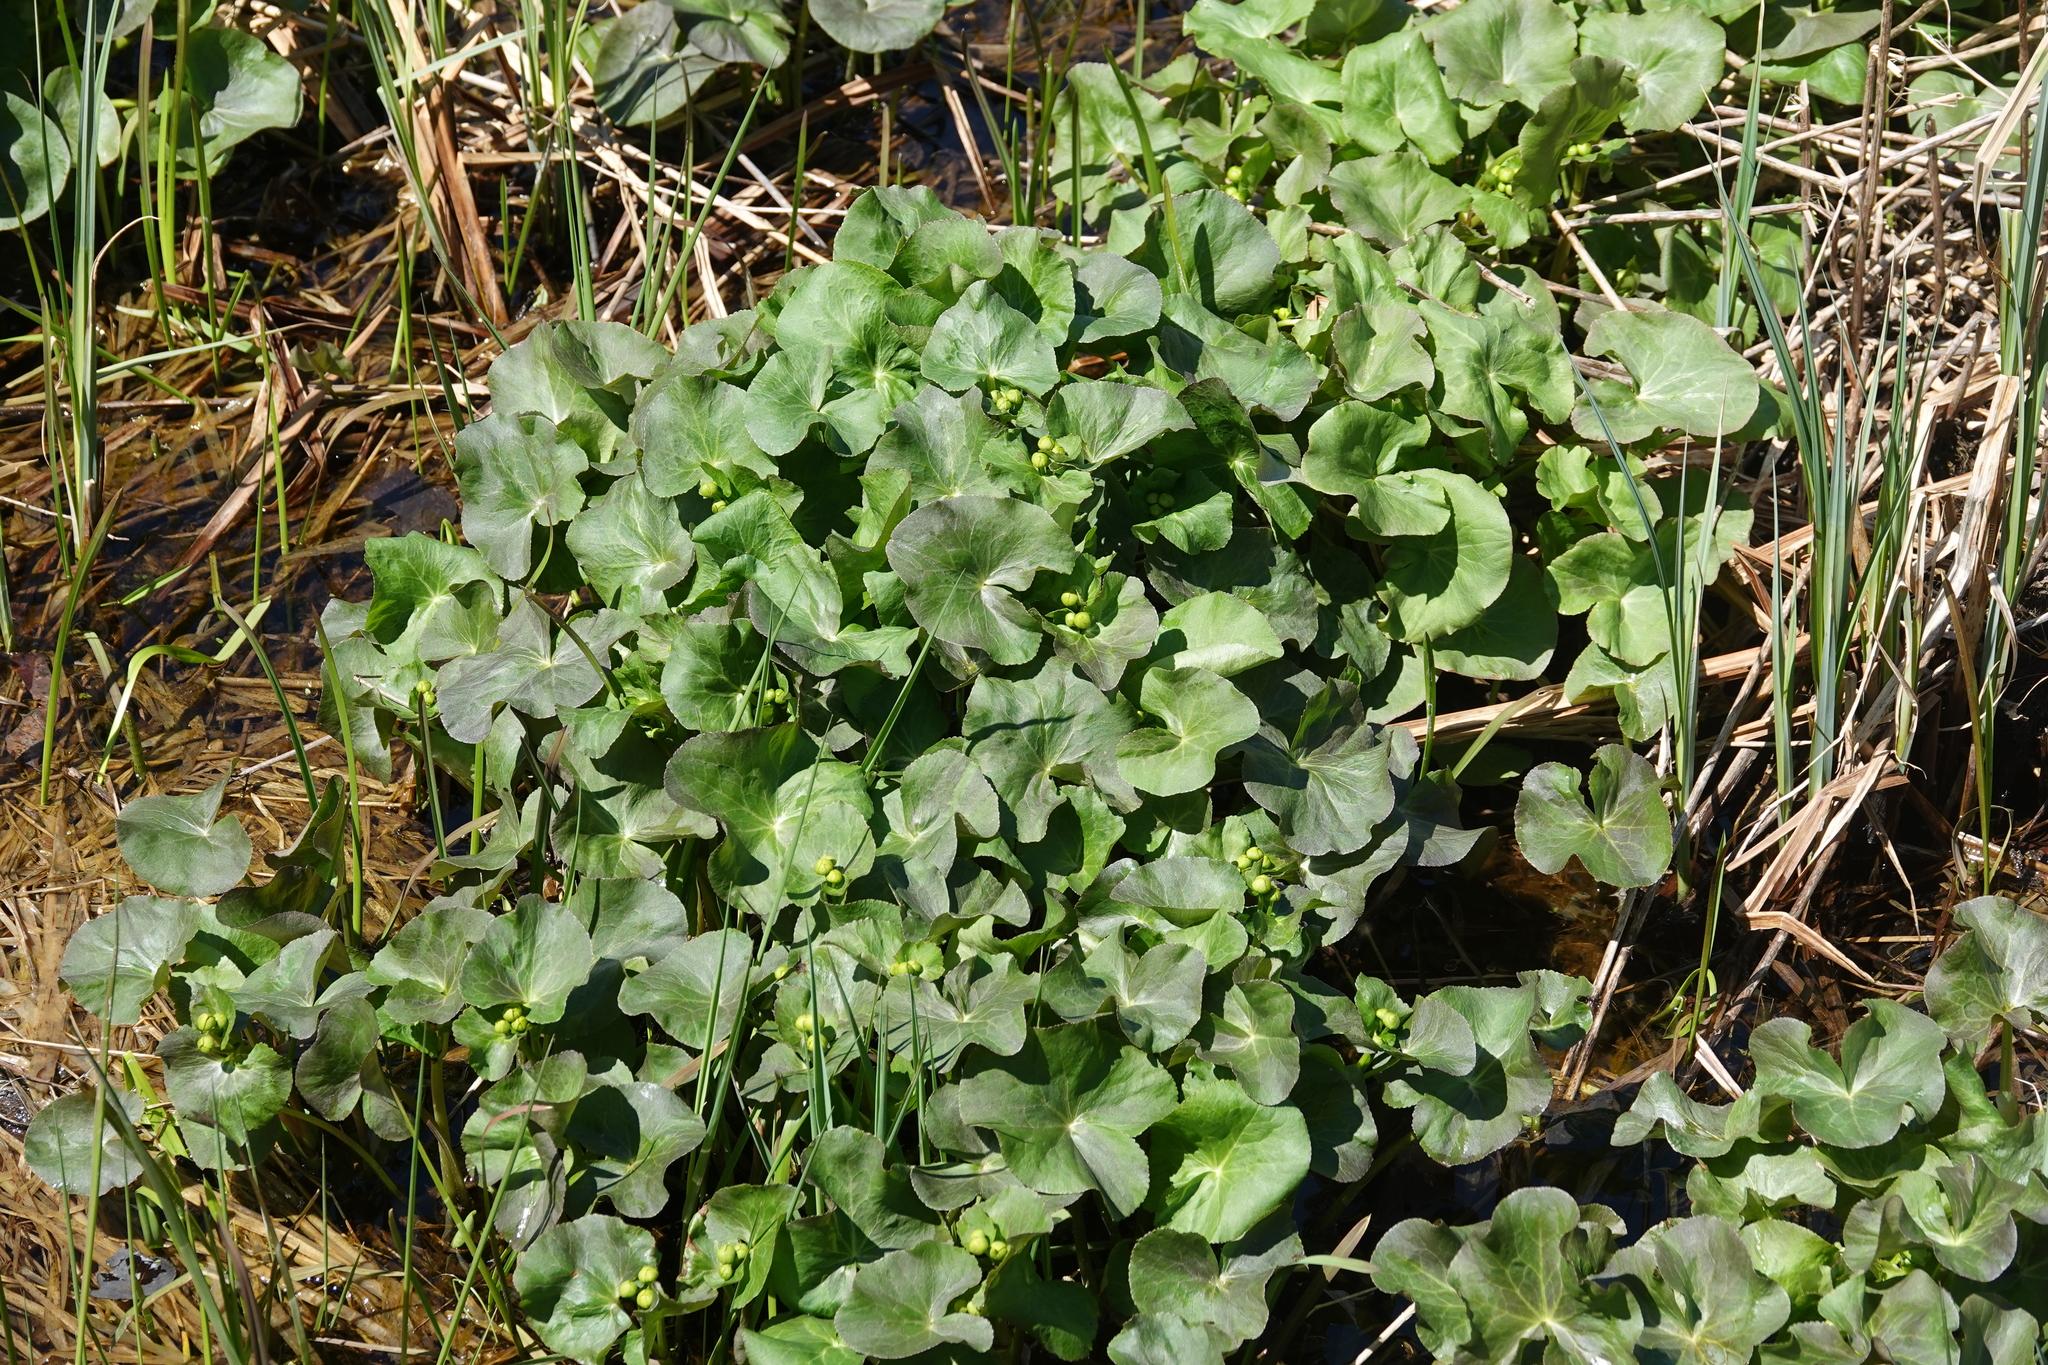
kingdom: Plantae
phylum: Tracheophyta
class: Magnoliopsida
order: Ranunculales
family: Ranunculaceae
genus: Caltha
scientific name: Caltha palustris
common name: Marsh marigold
